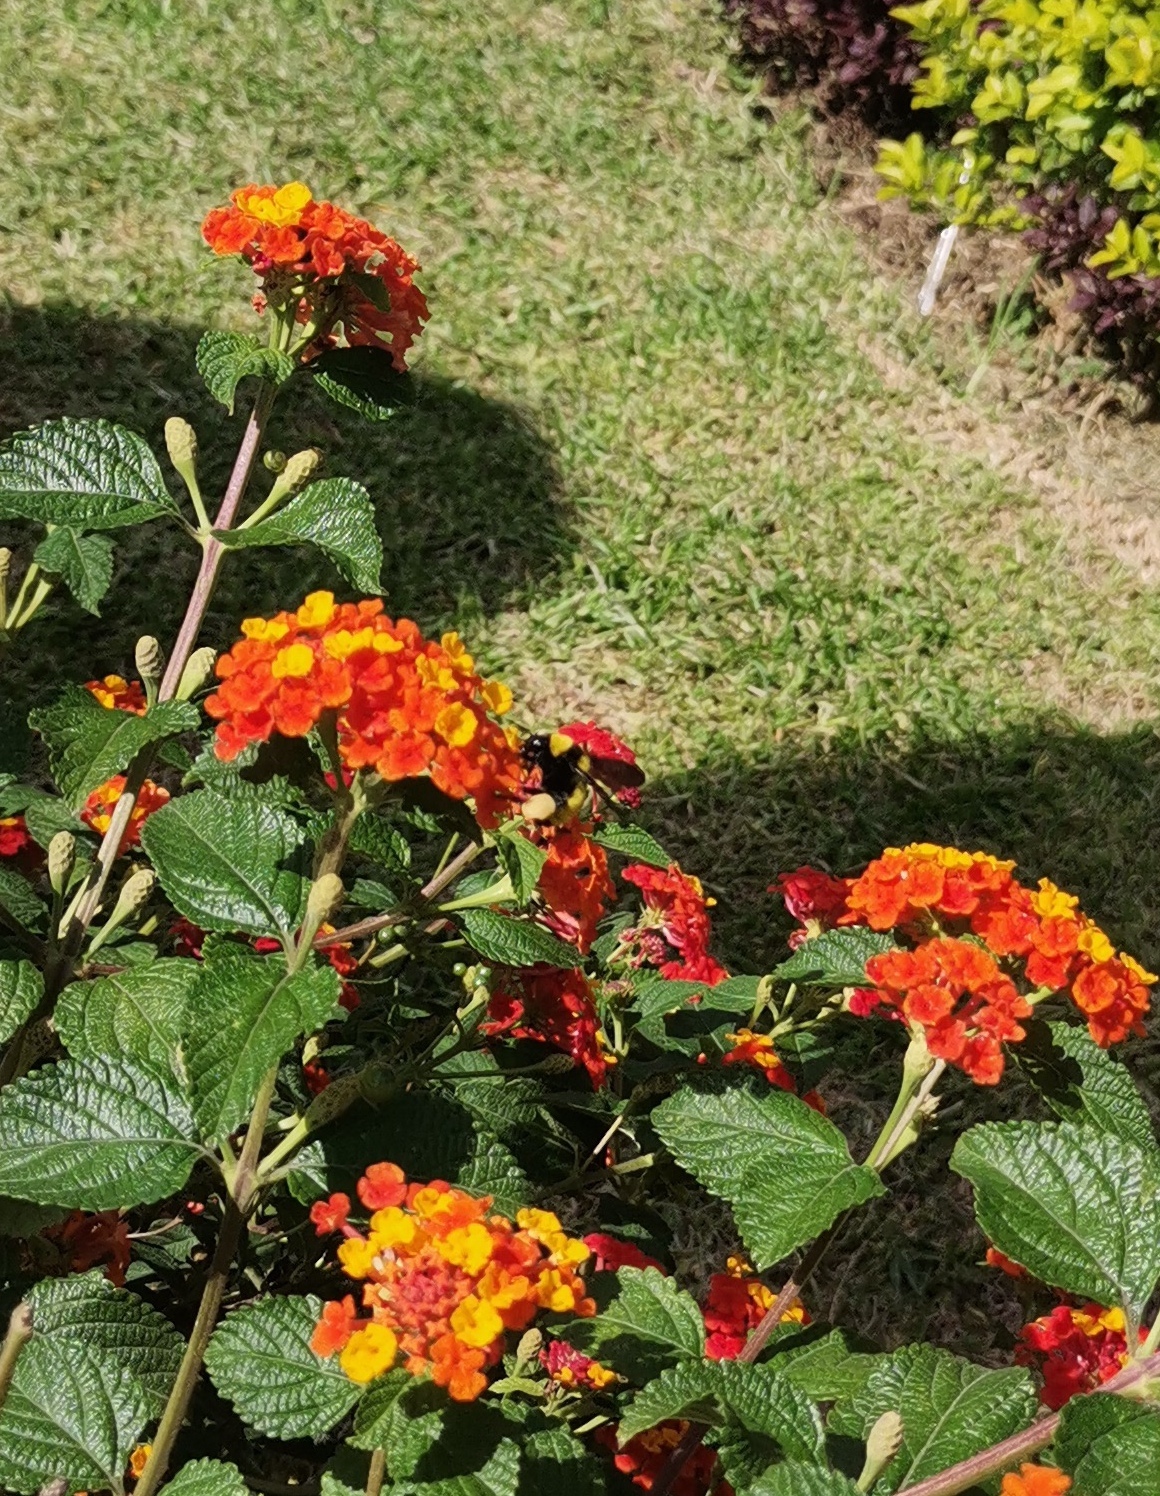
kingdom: Animalia
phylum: Arthropoda
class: Insecta
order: Hymenoptera
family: Apidae
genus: Bombus
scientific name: Bombus sonorus
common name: Sonoran bumble bee
